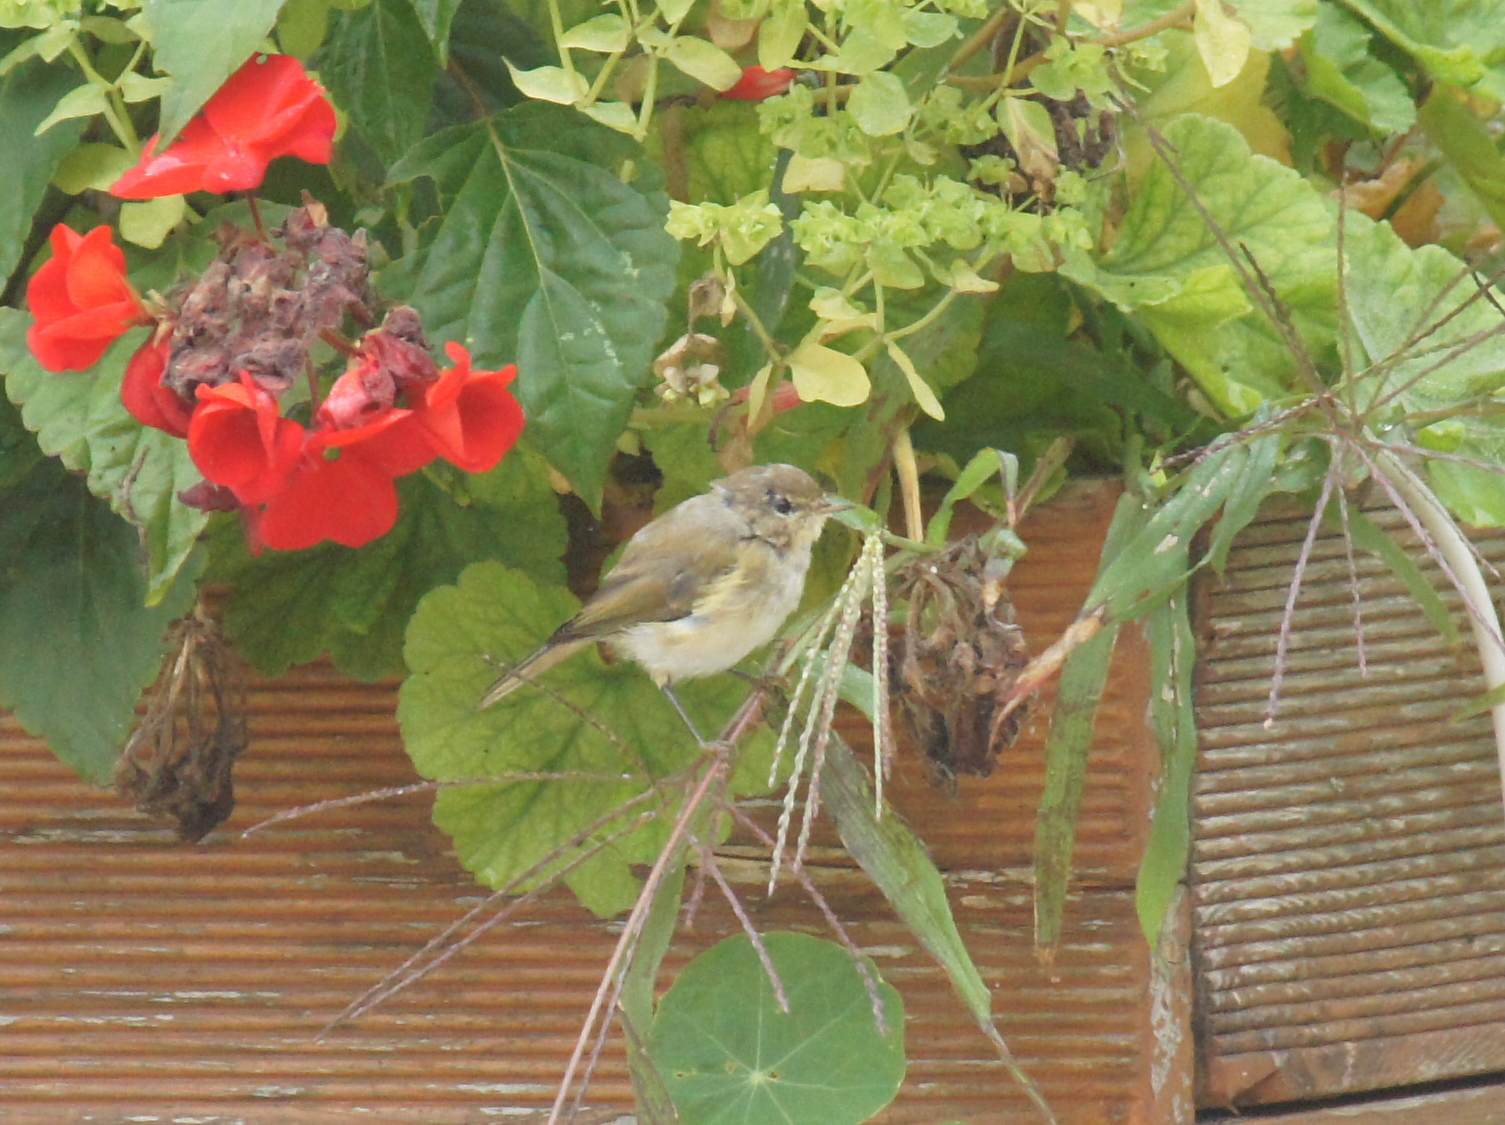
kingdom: Animalia
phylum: Chordata
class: Aves
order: Passeriformes
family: Phylloscopidae
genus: Phylloscopus
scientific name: Phylloscopus collybita
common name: Common chiffchaff
